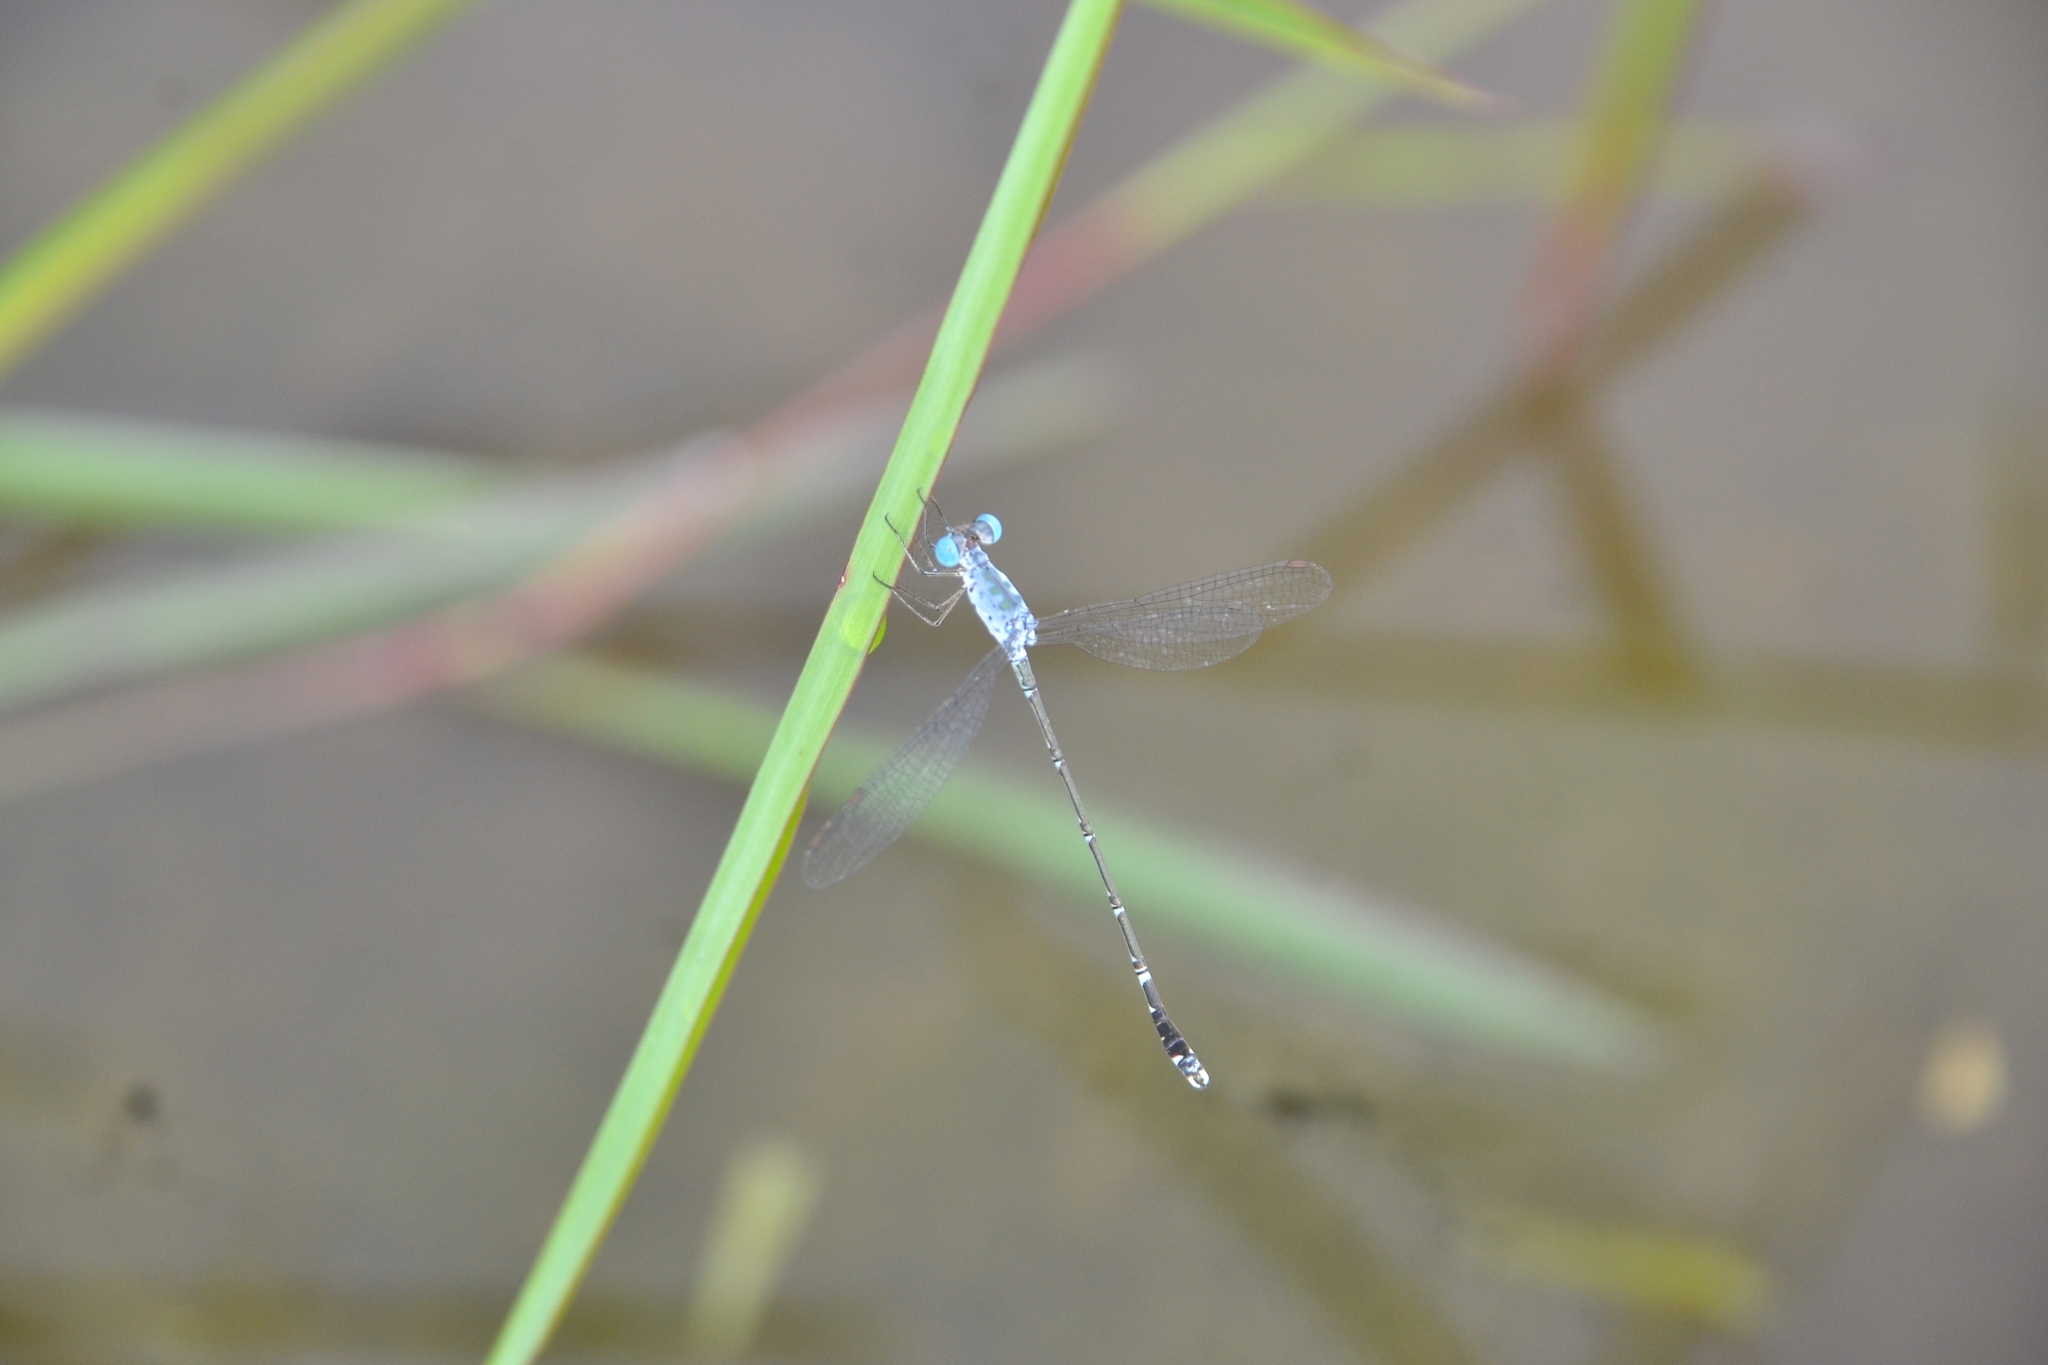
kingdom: Animalia
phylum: Arthropoda
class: Insecta
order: Odonata
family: Lestidae
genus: Lestes
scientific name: Lestes praemorsus
